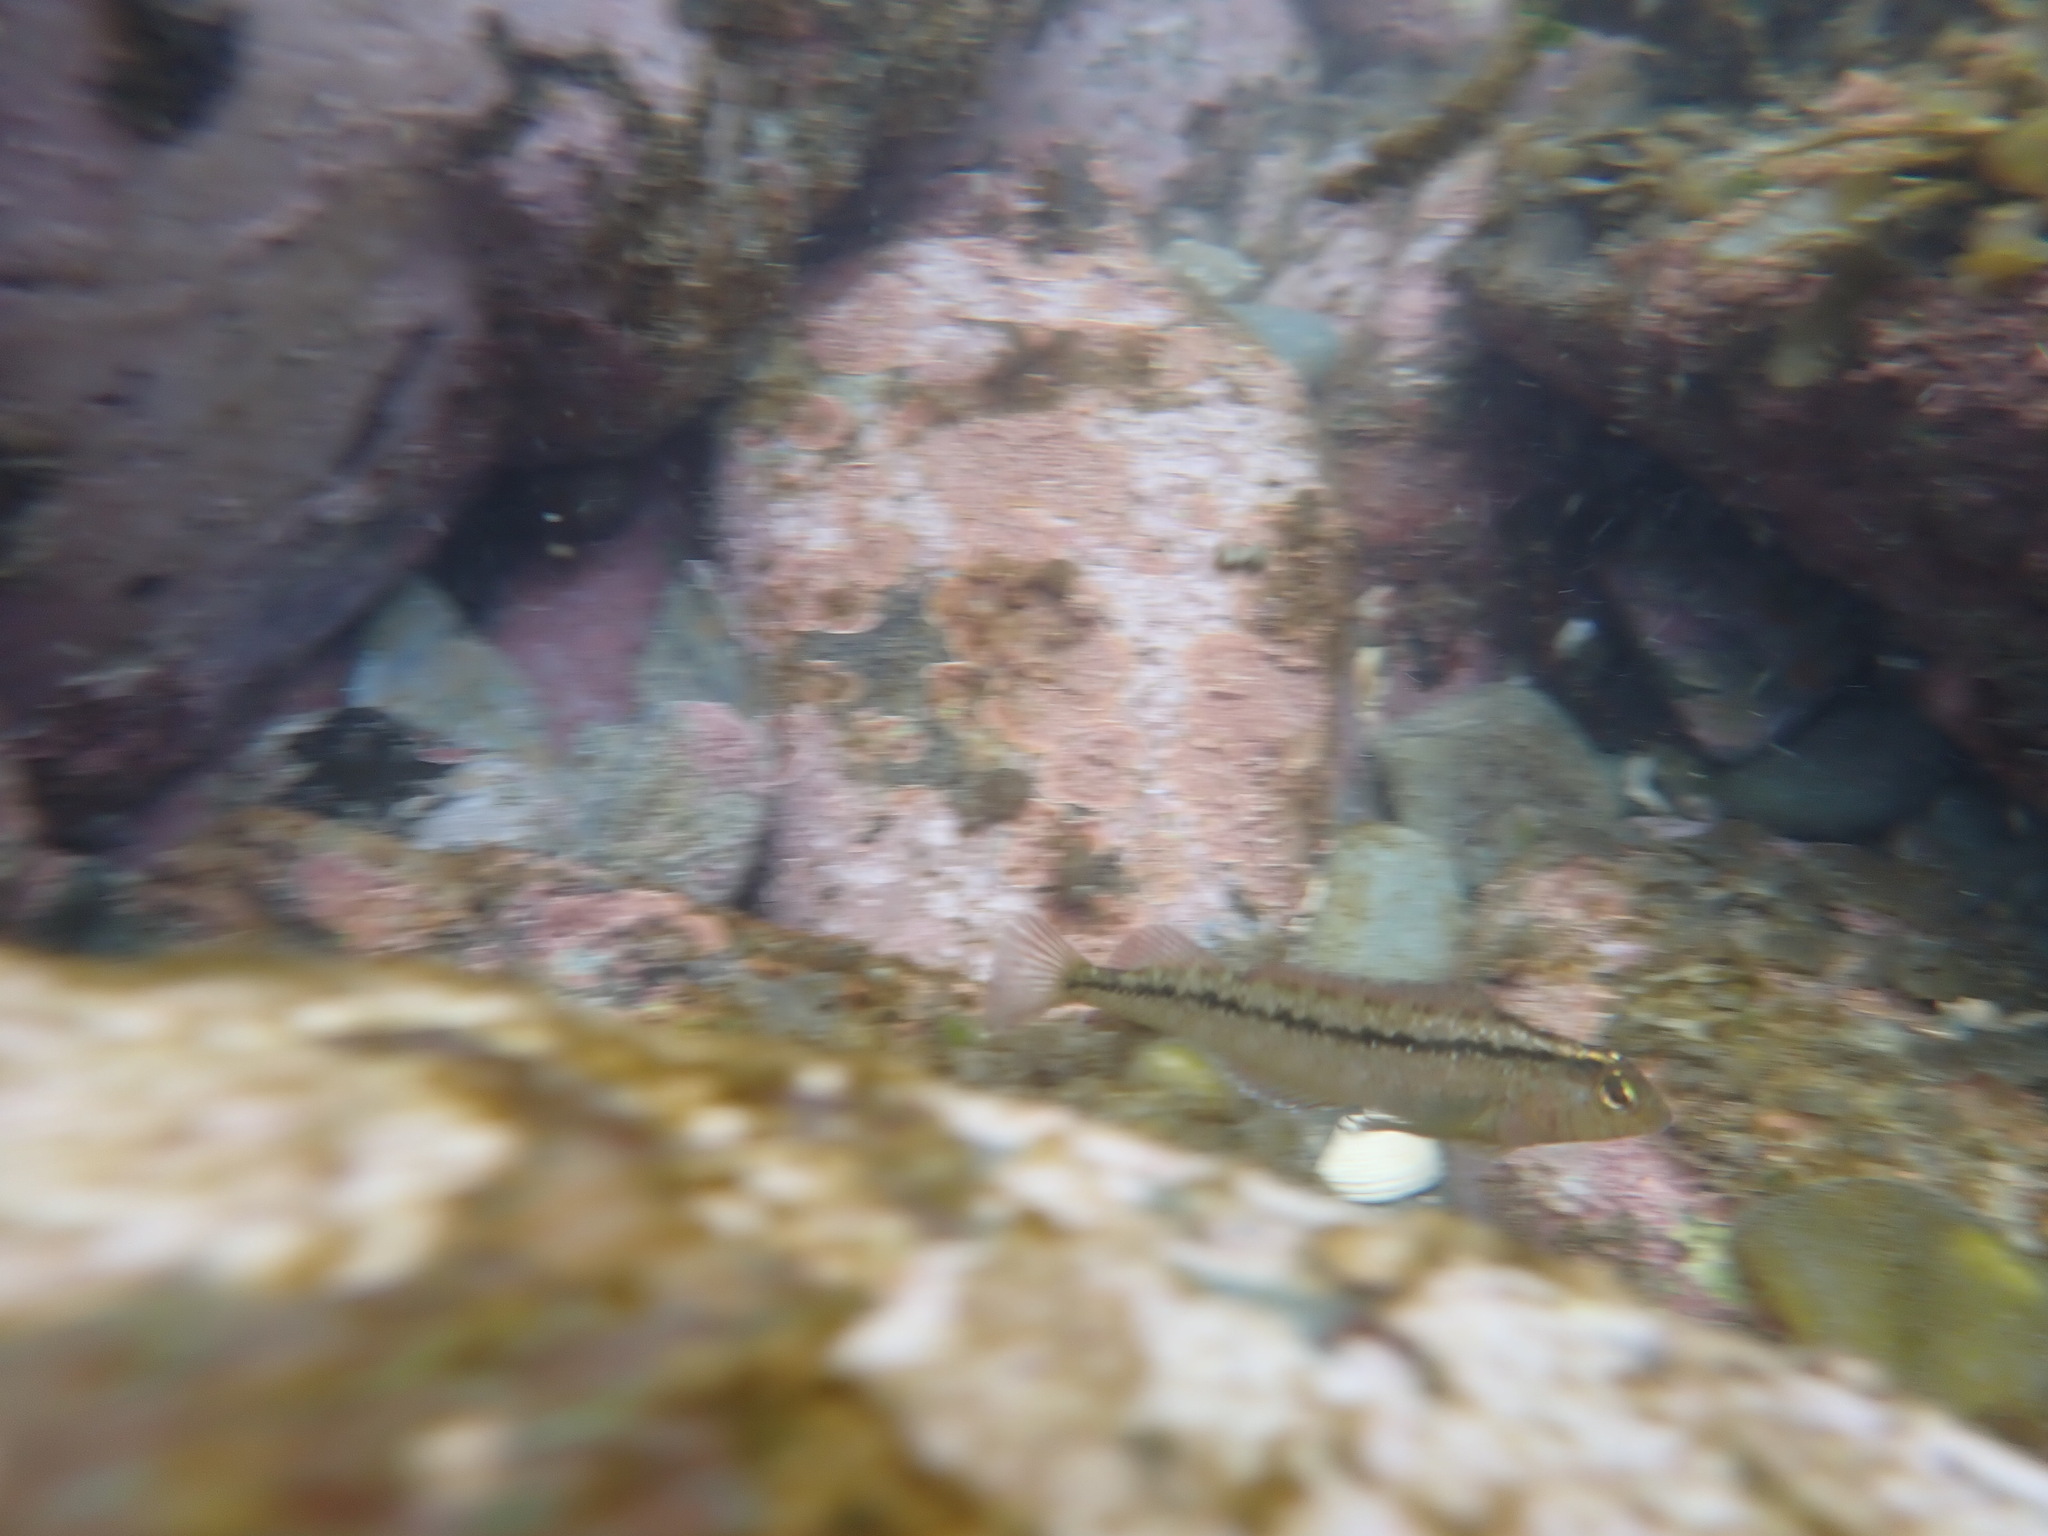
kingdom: Animalia
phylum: Chordata
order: Perciformes
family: Tripterygiidae
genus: Forsterygion
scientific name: Forsterygion lapillum
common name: Common triplefin
